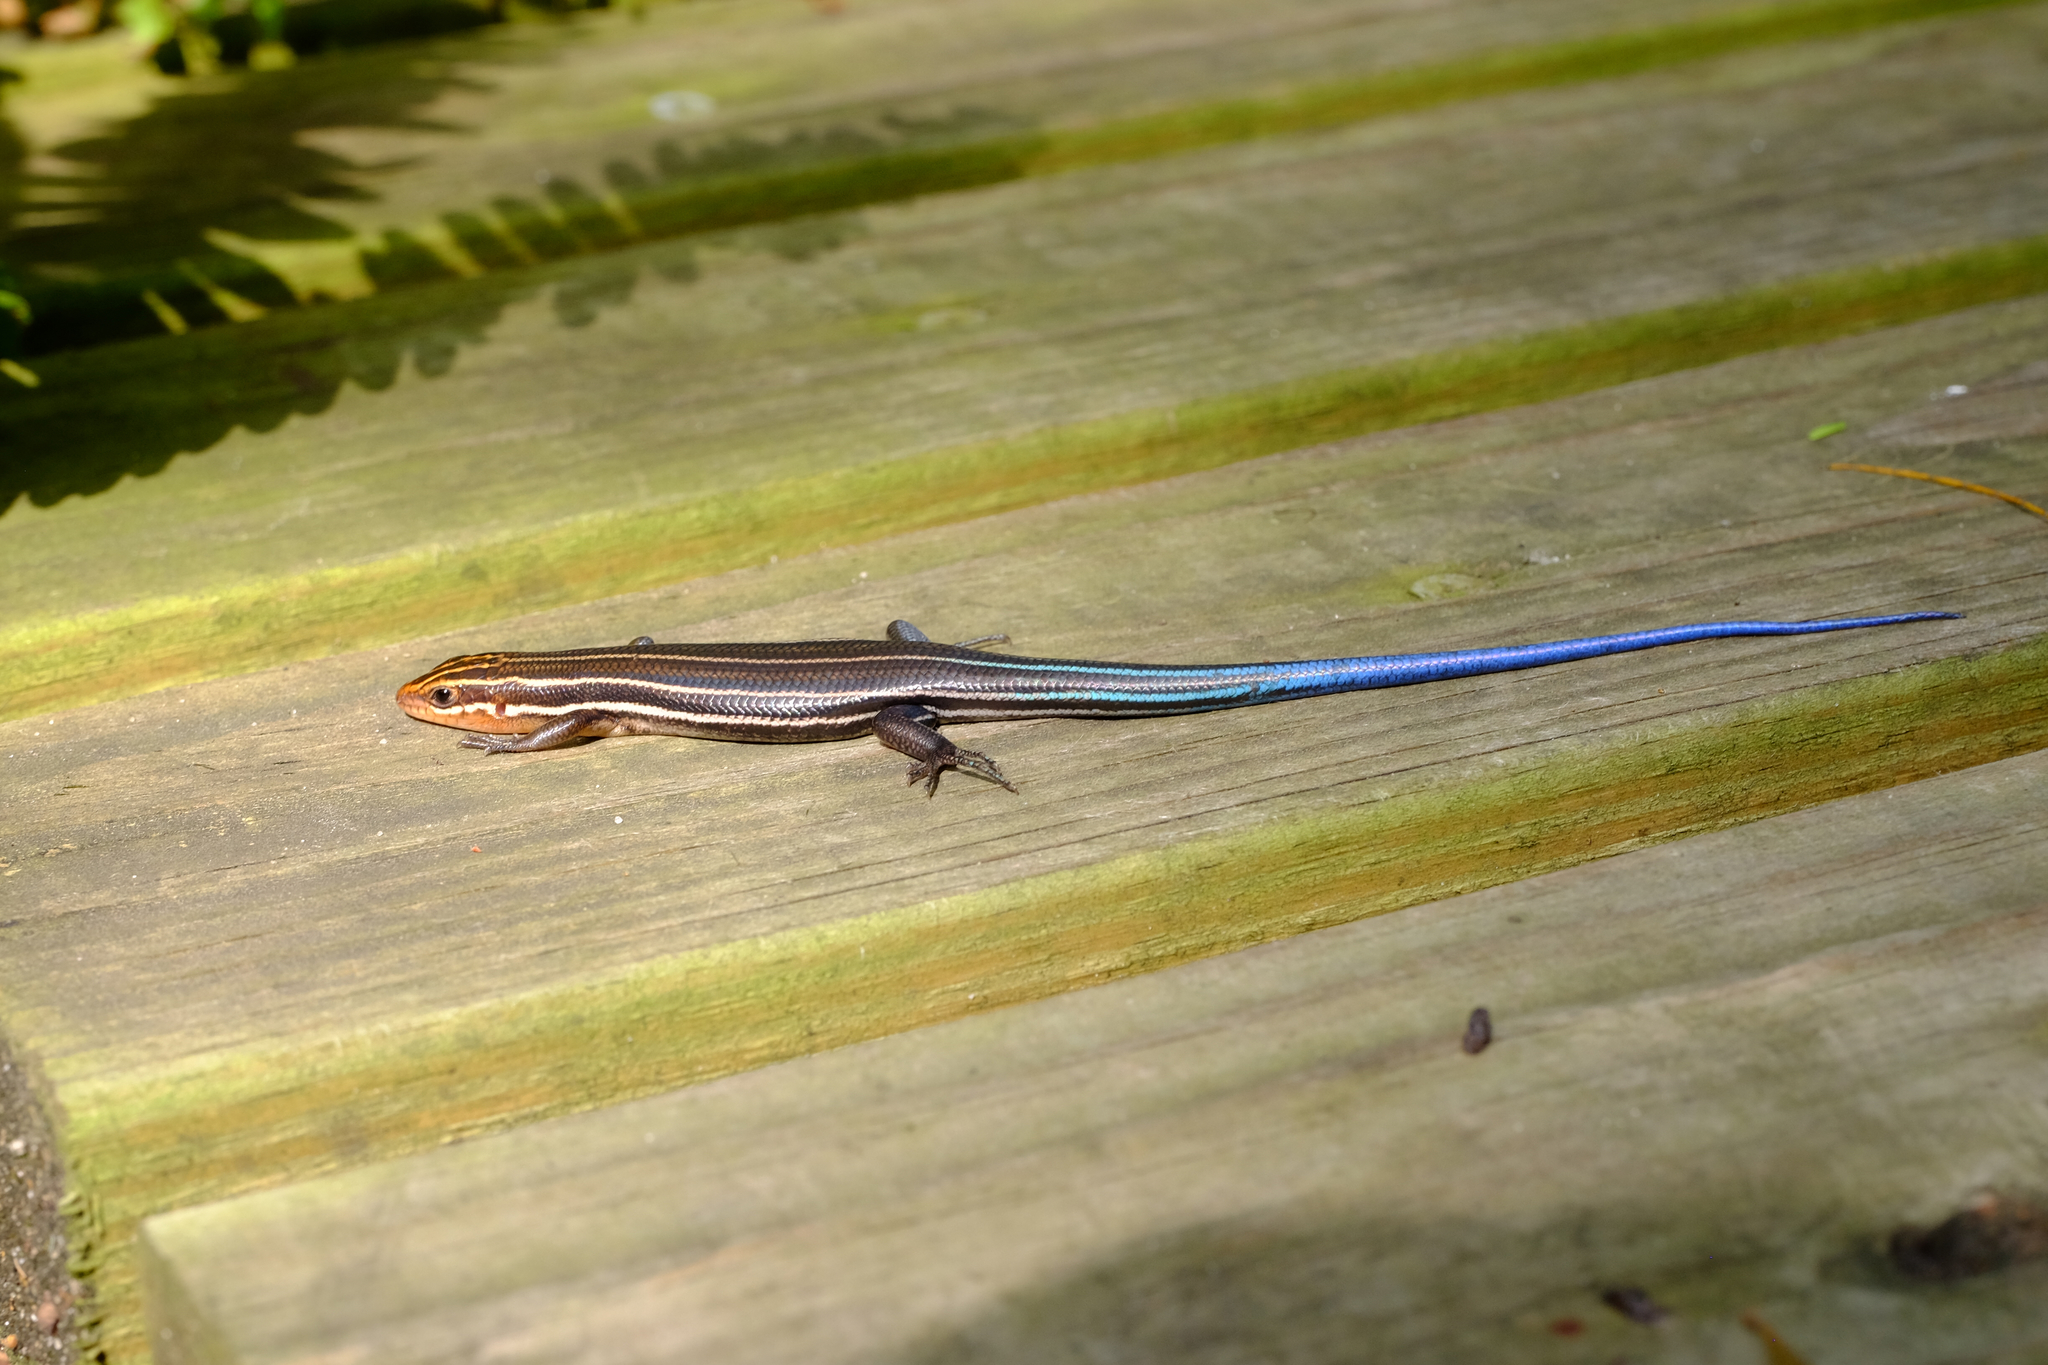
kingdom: Animalia
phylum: Chordata
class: Squamata
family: Scincidae
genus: Plestiodon
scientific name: Plestiodon fasciatus
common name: Five-lined skink
